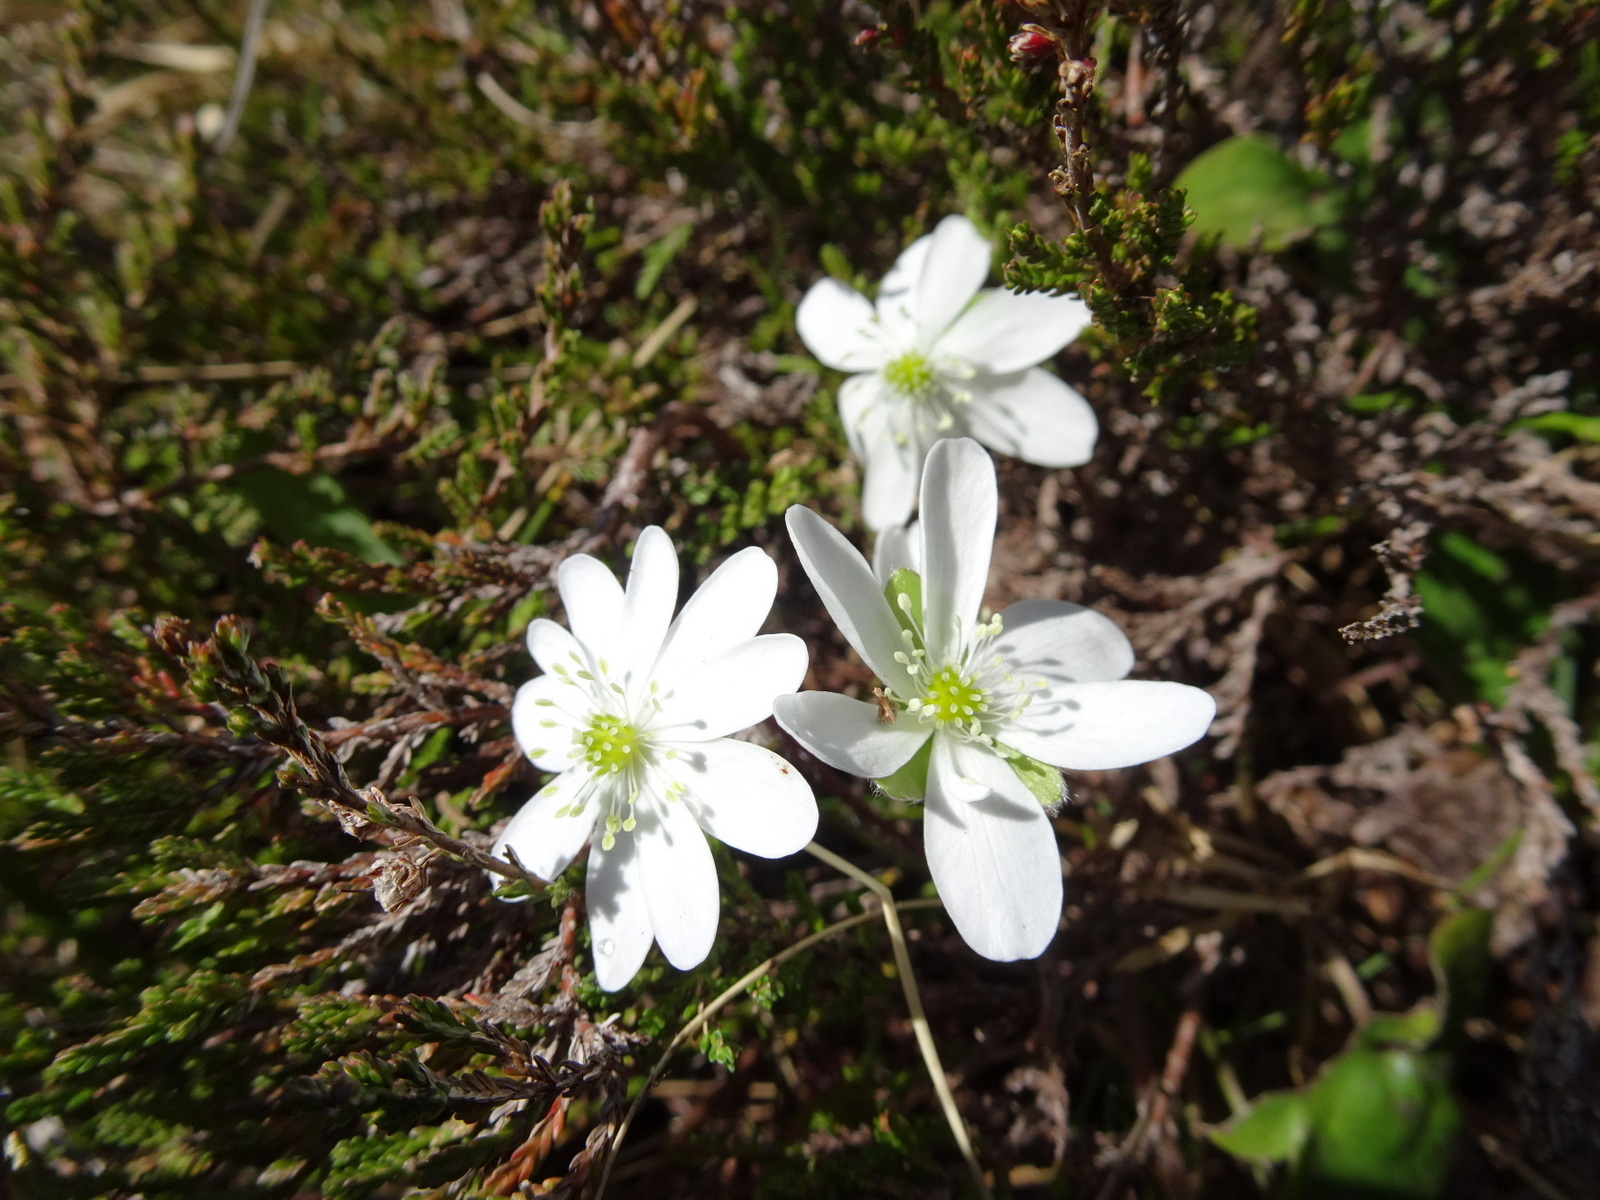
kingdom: Plantae
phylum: Tracheophyta
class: Magnoliopsida
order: Ranunculales
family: Ranunculaceae
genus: Hepatica
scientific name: Hepatica nobilis
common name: Liverleaf
